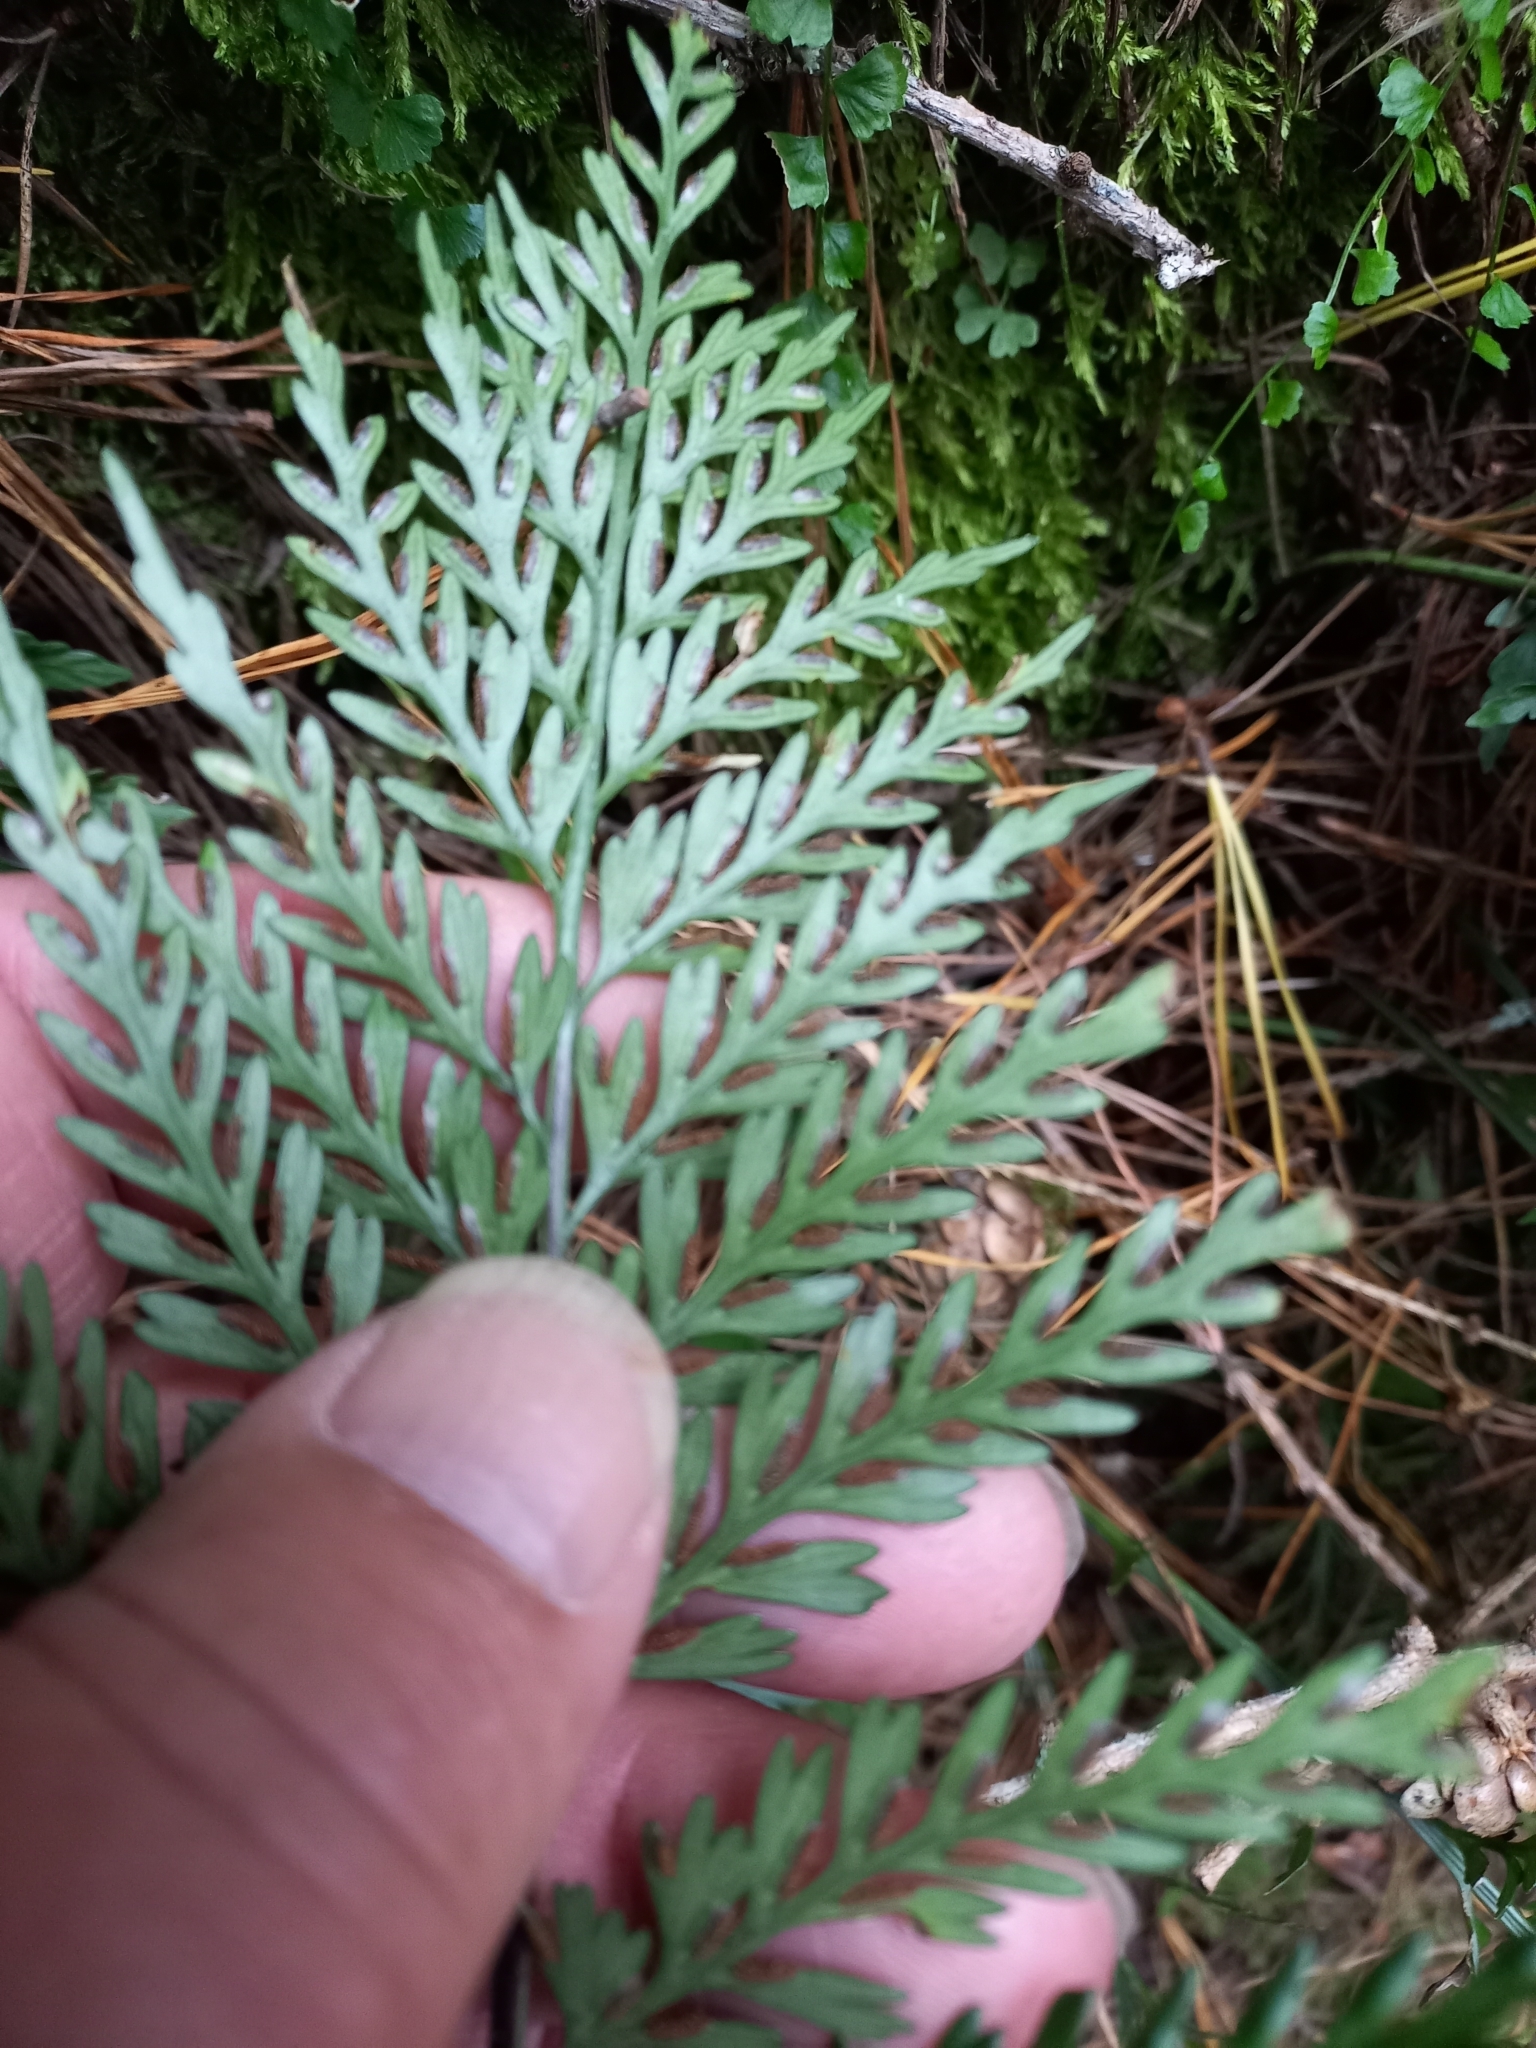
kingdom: Plantae
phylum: Tracheophyta
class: Polypodiopsida
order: Polypodiales
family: Aspleniaceae
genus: Asplenium
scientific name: Asplenium appendiculatum
